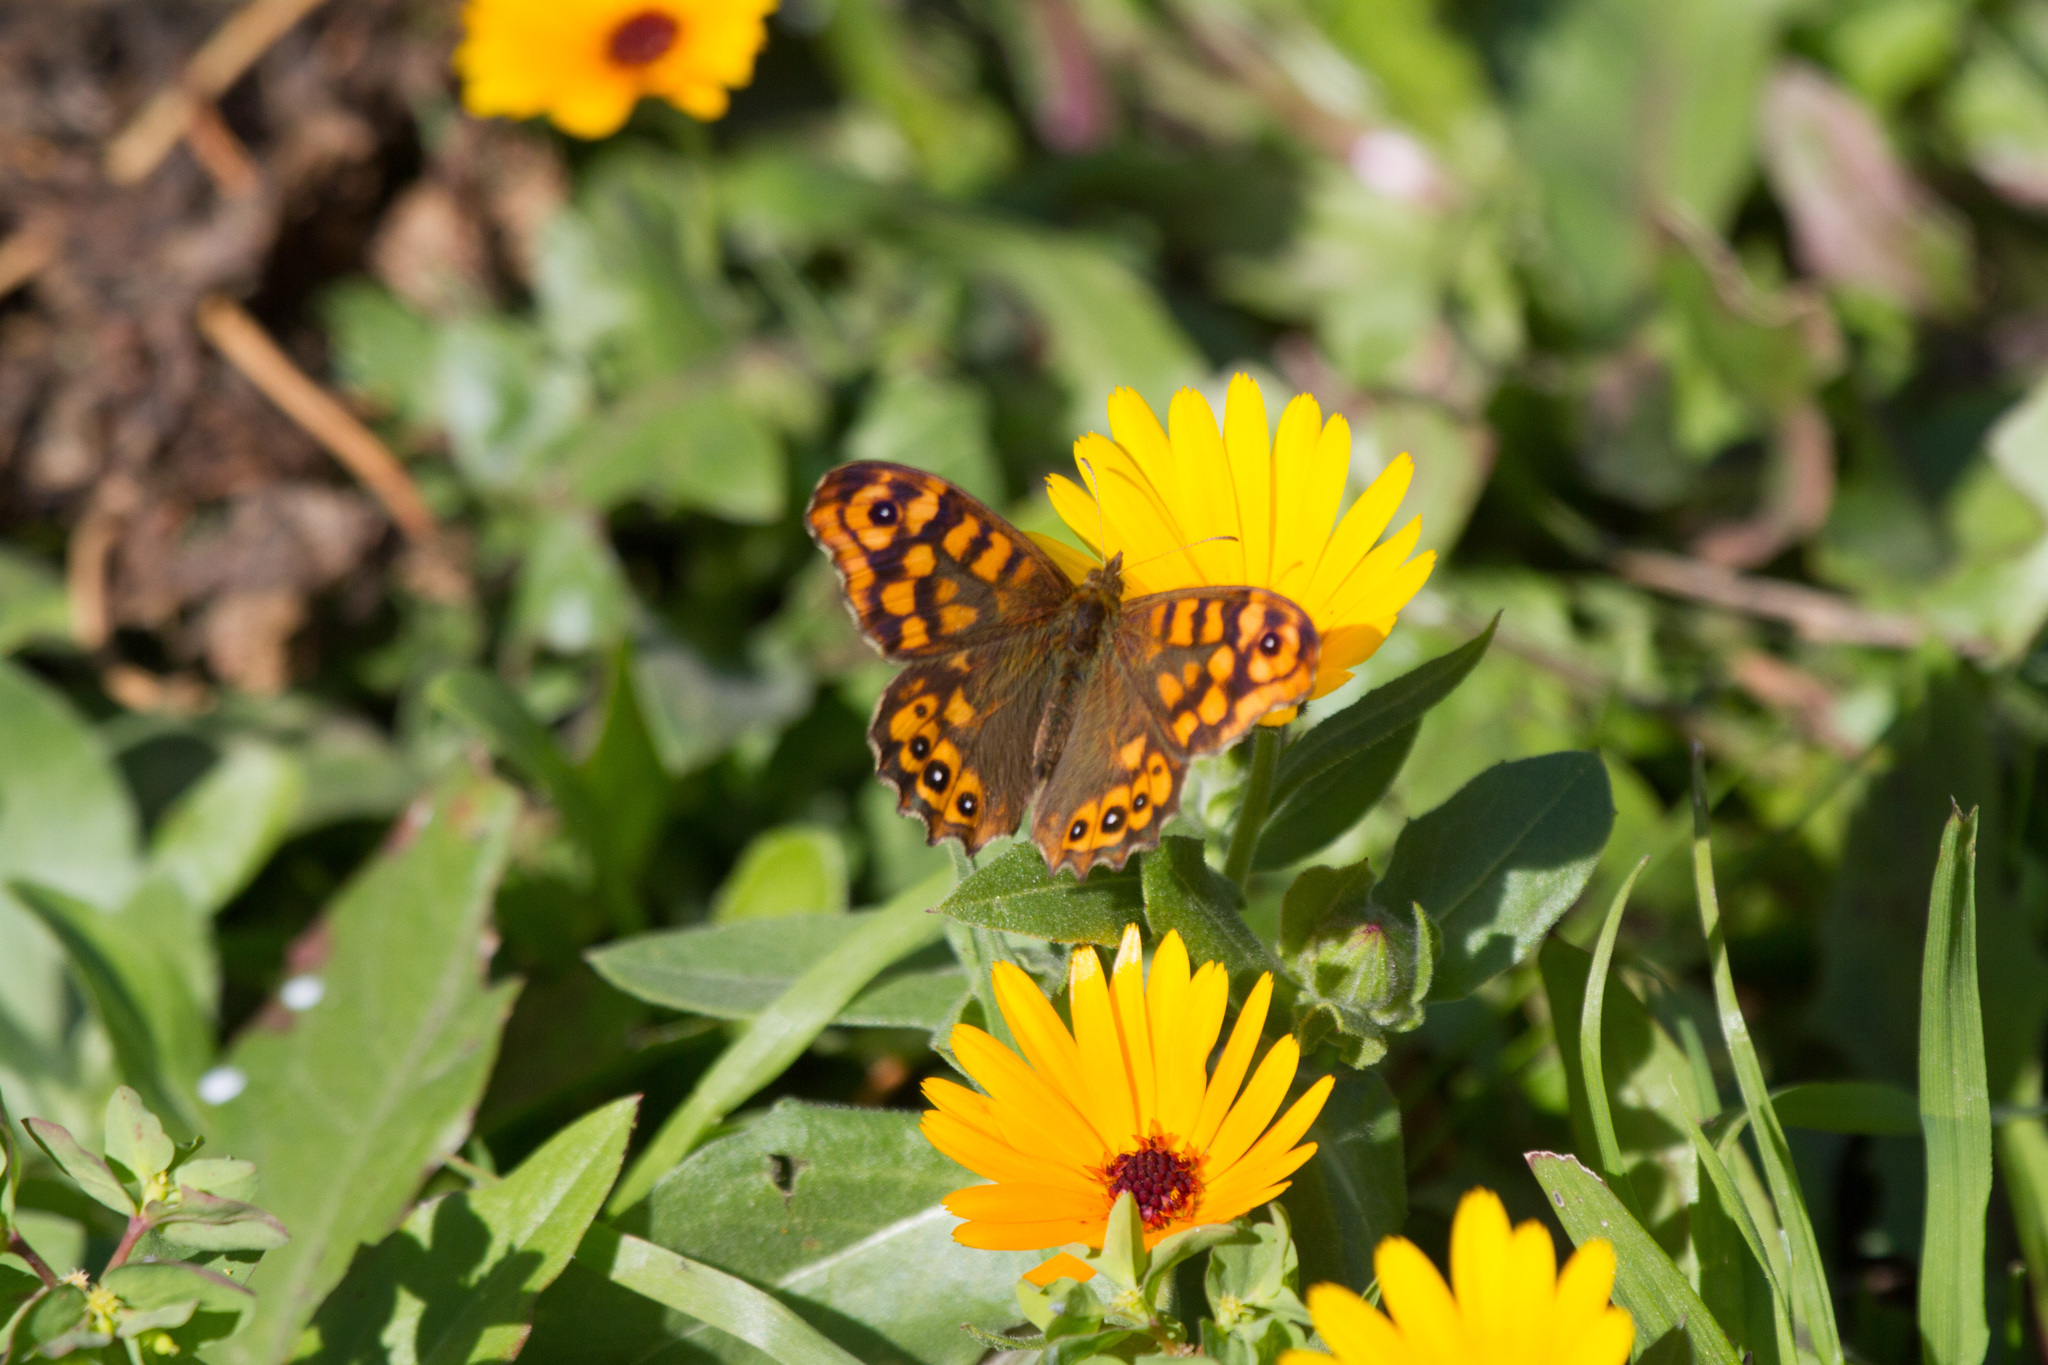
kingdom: Animalia
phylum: Arthropoda
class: Insecta
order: Lepidoptera
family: Nymphalidae
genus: Pararge
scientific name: Pararge aegeria
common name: Speckled wood
